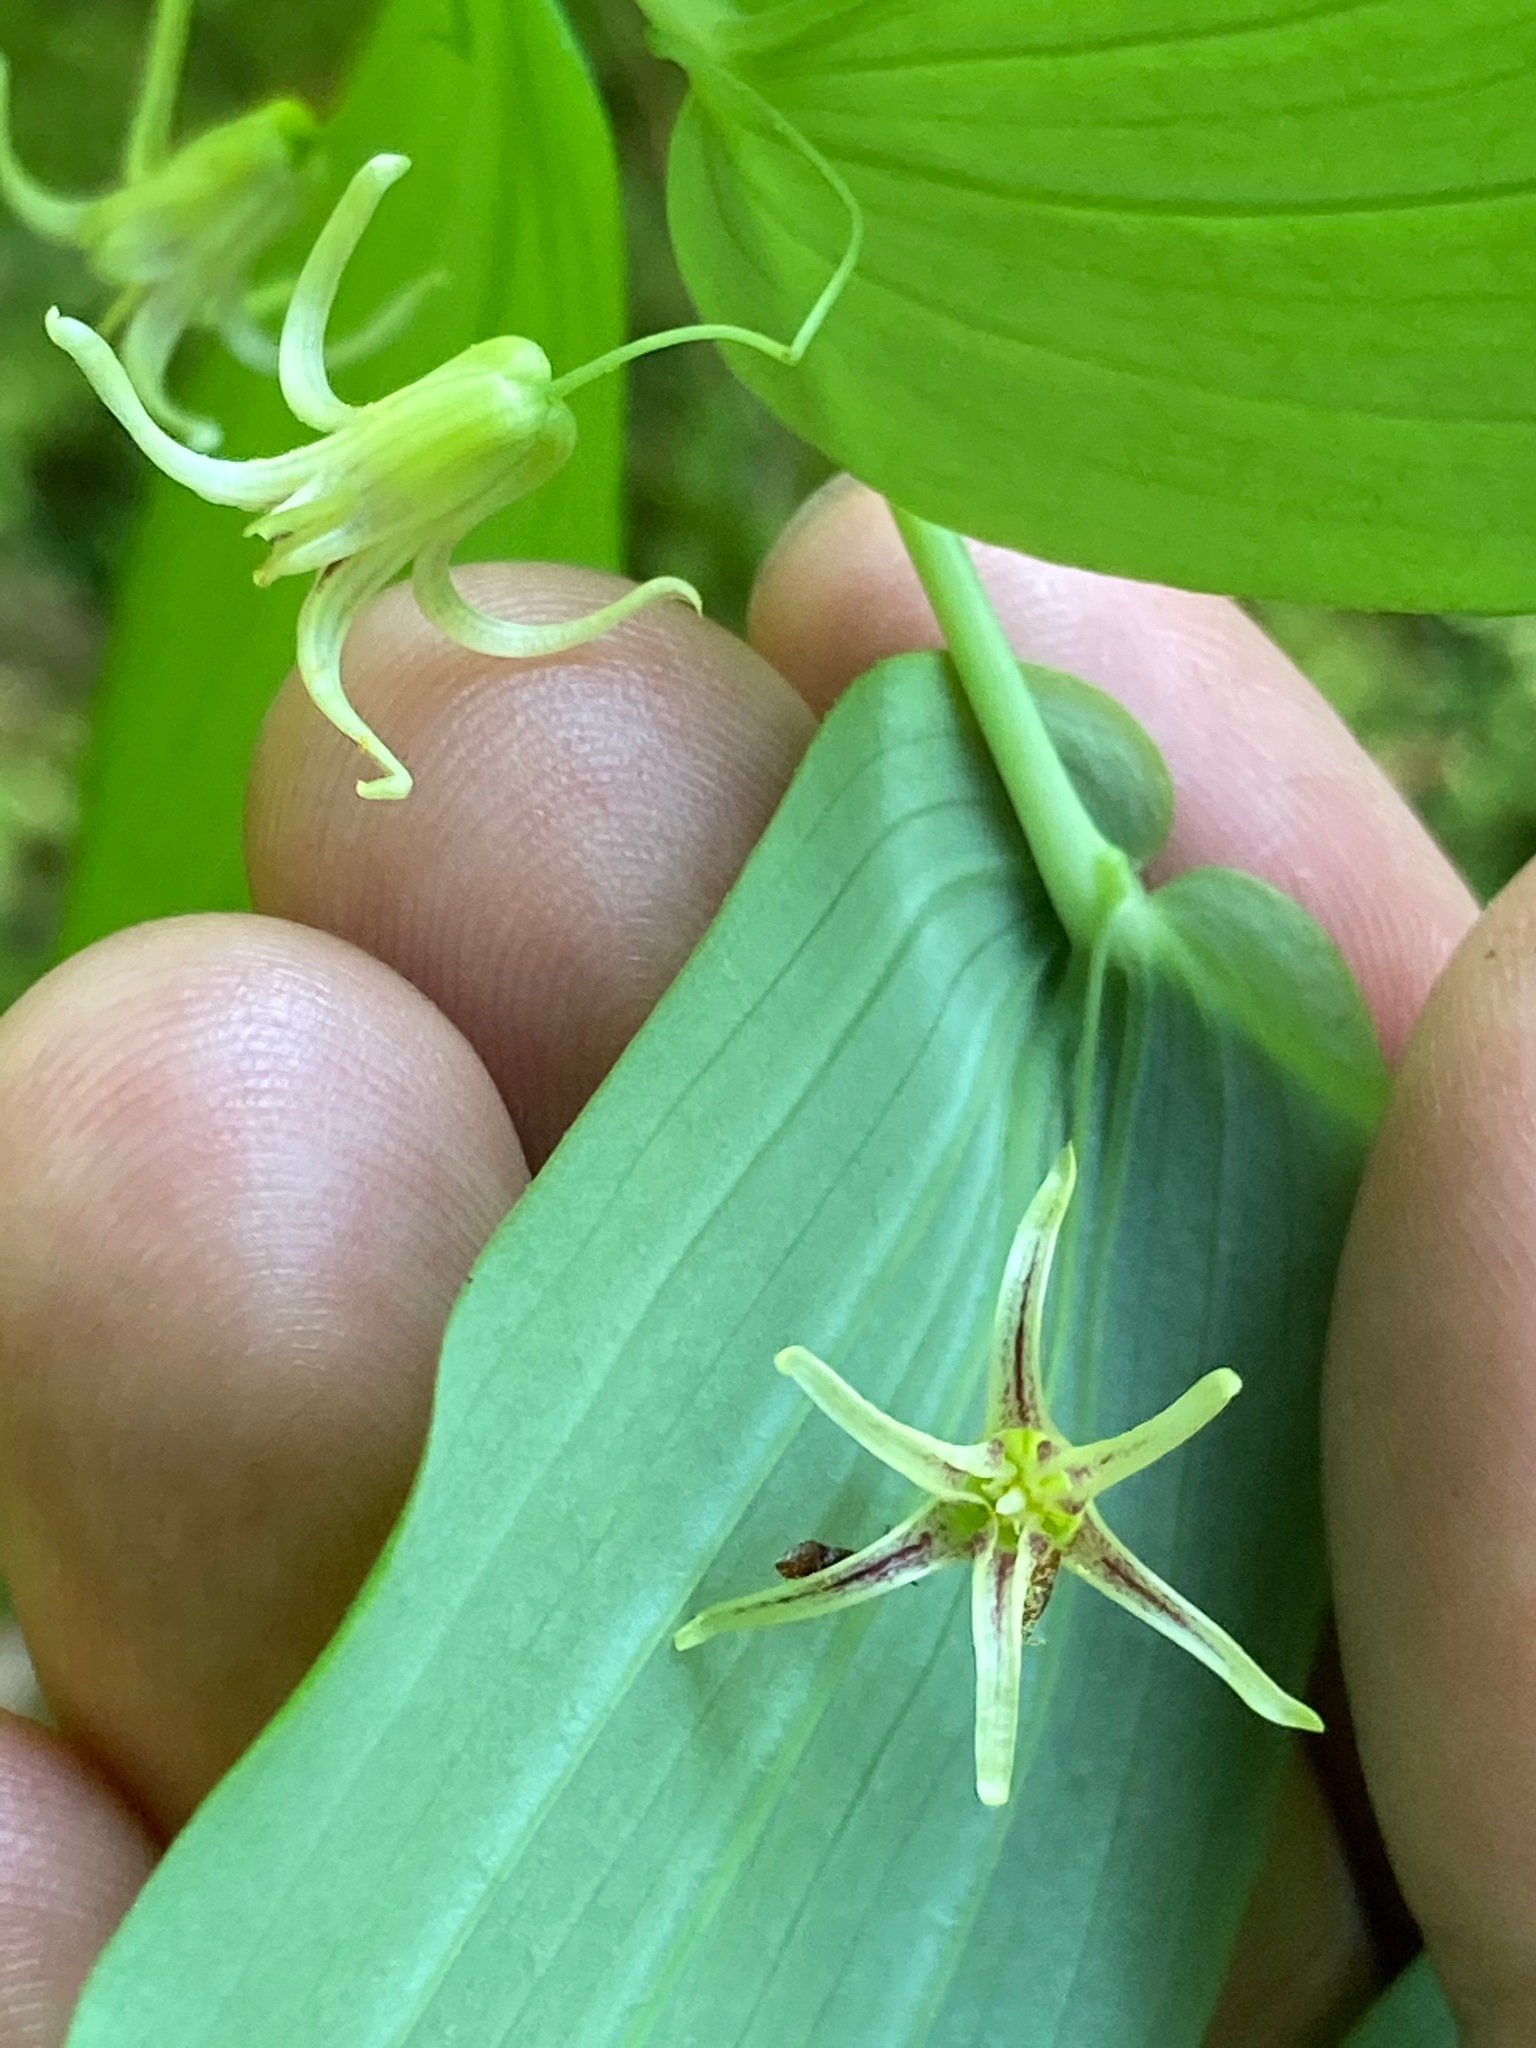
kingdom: Plantae
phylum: Tracheophyta
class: Liliopsida
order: Liliales
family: Liliaceae
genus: Streptopus
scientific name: Streptopus amplexifolius
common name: Clasp twisted stalk
